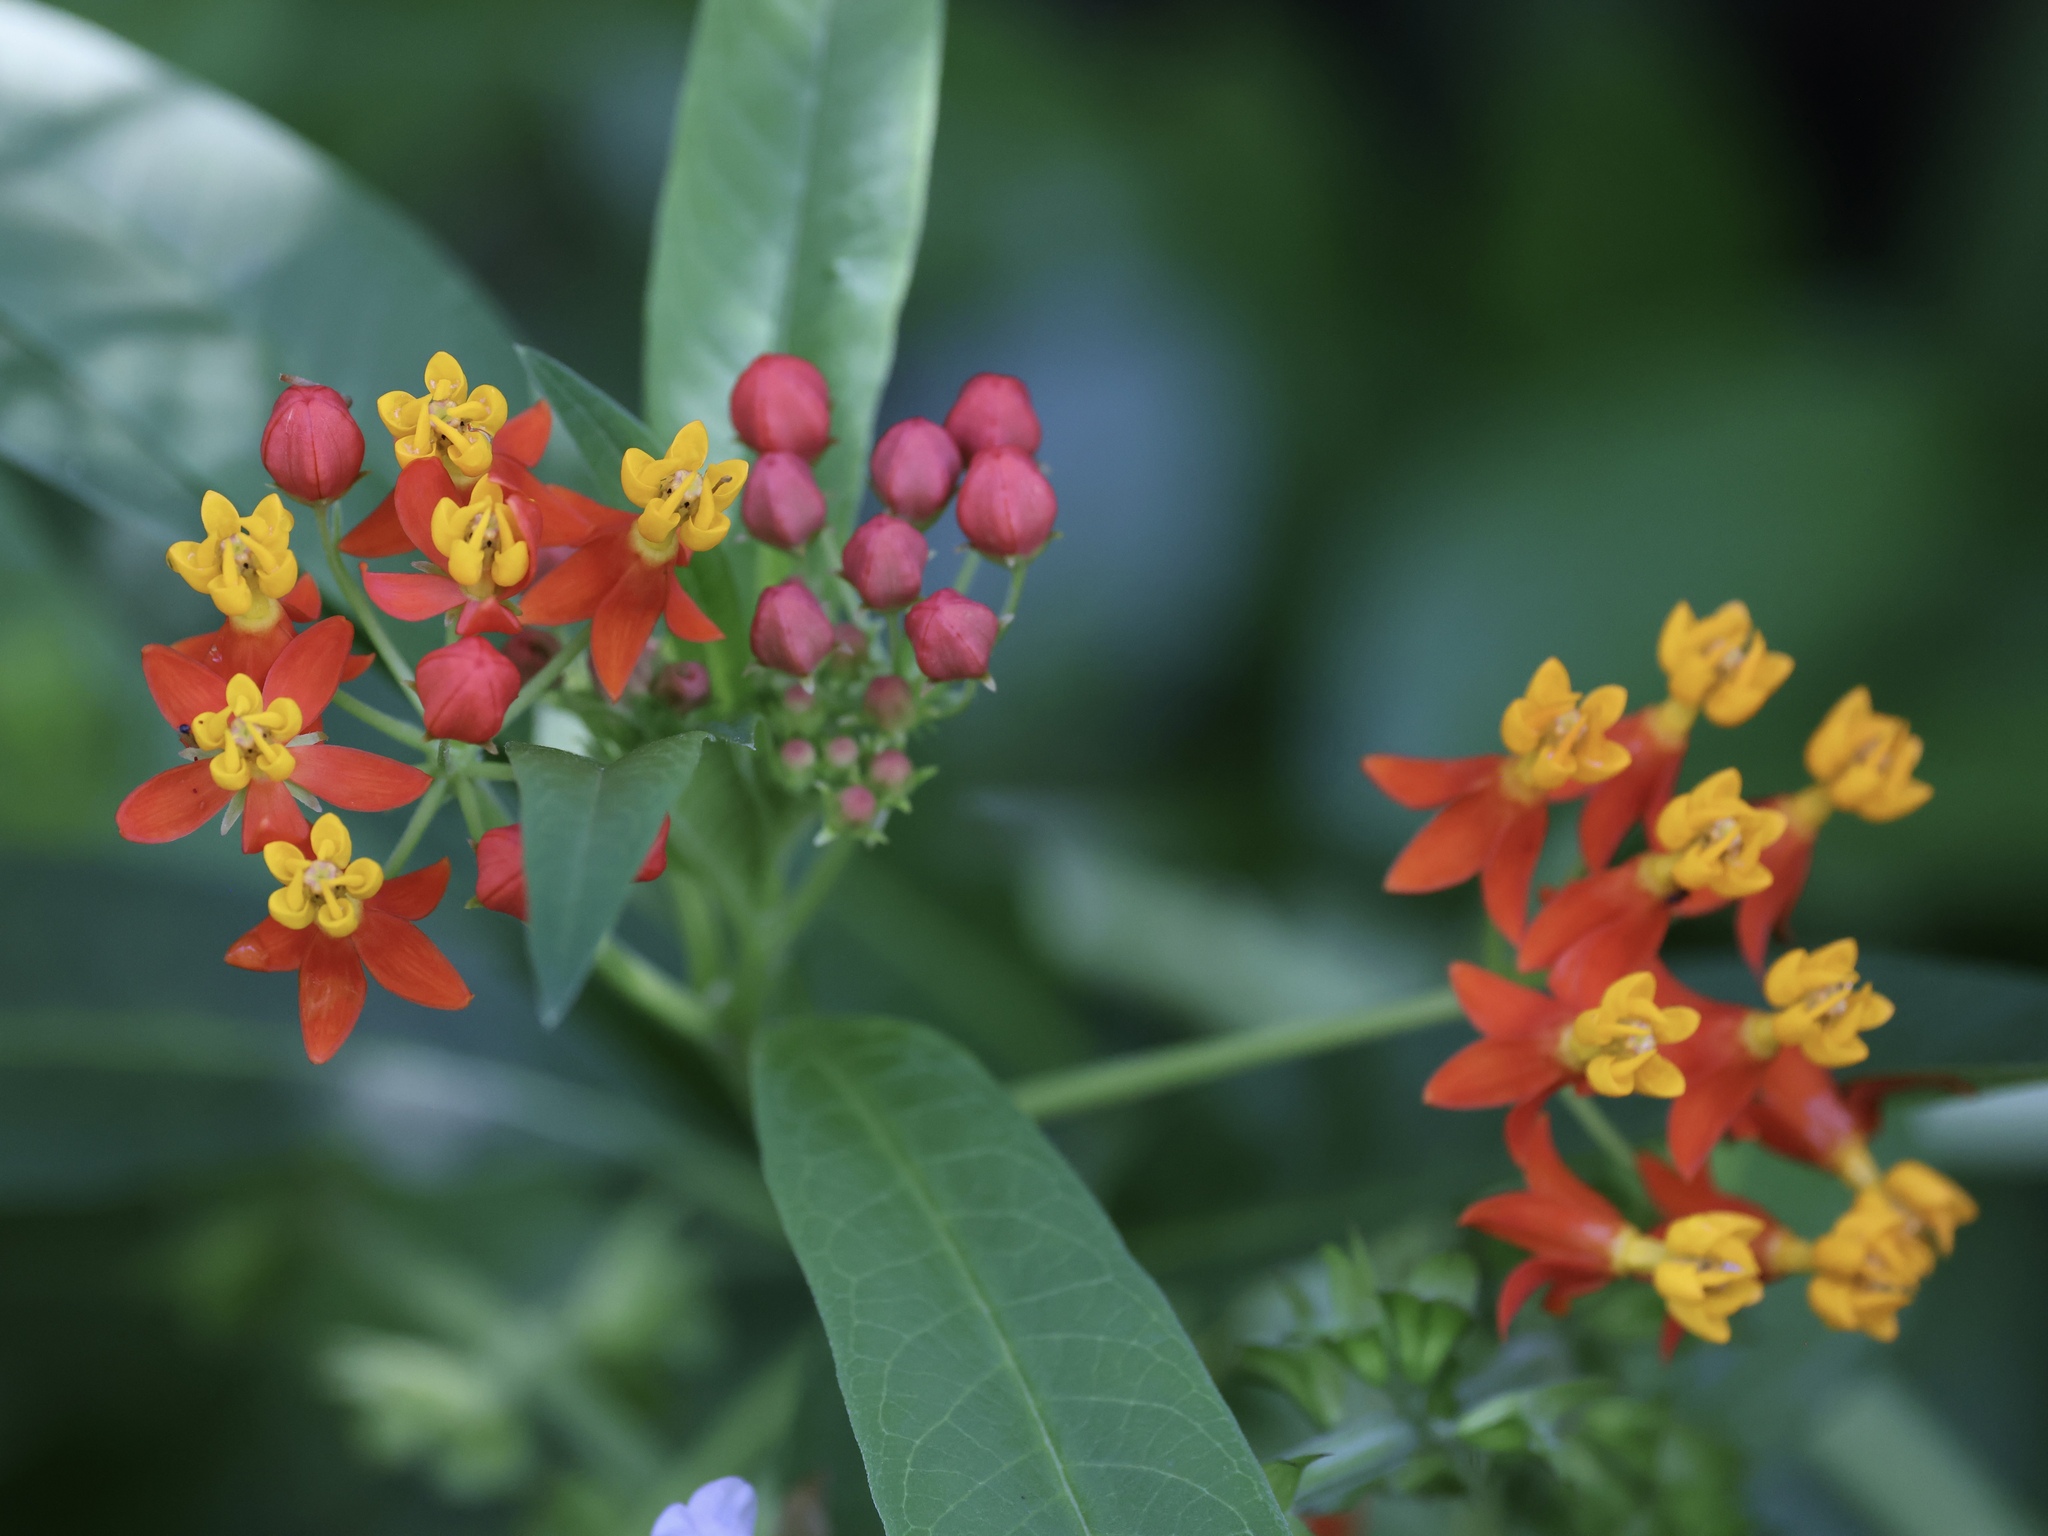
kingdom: Plantae
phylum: Tracheophyta
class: Magnoliopsida
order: Gentianales
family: Apocynaceae
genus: Asclepias
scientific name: Asclepias curassavica
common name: Bloodflower
